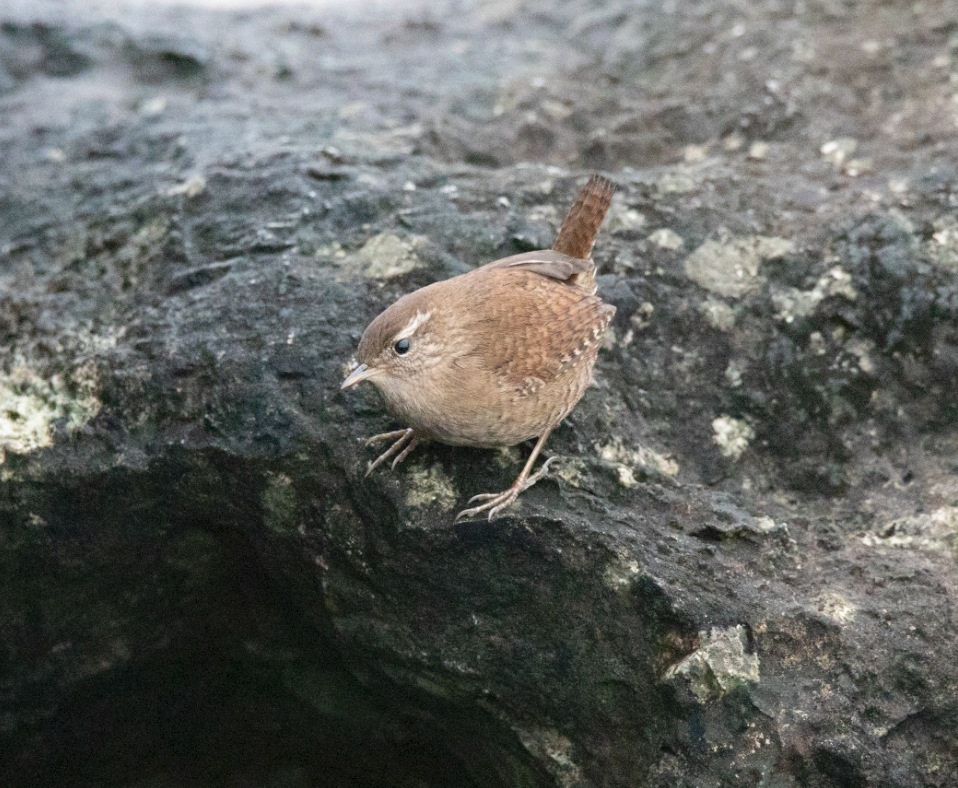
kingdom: Animalia
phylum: Chordata
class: Aves
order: Passeriformes
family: Troglodytidae
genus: Troglodytes
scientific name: Troglodytes troglodytes
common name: Eurasian wren
